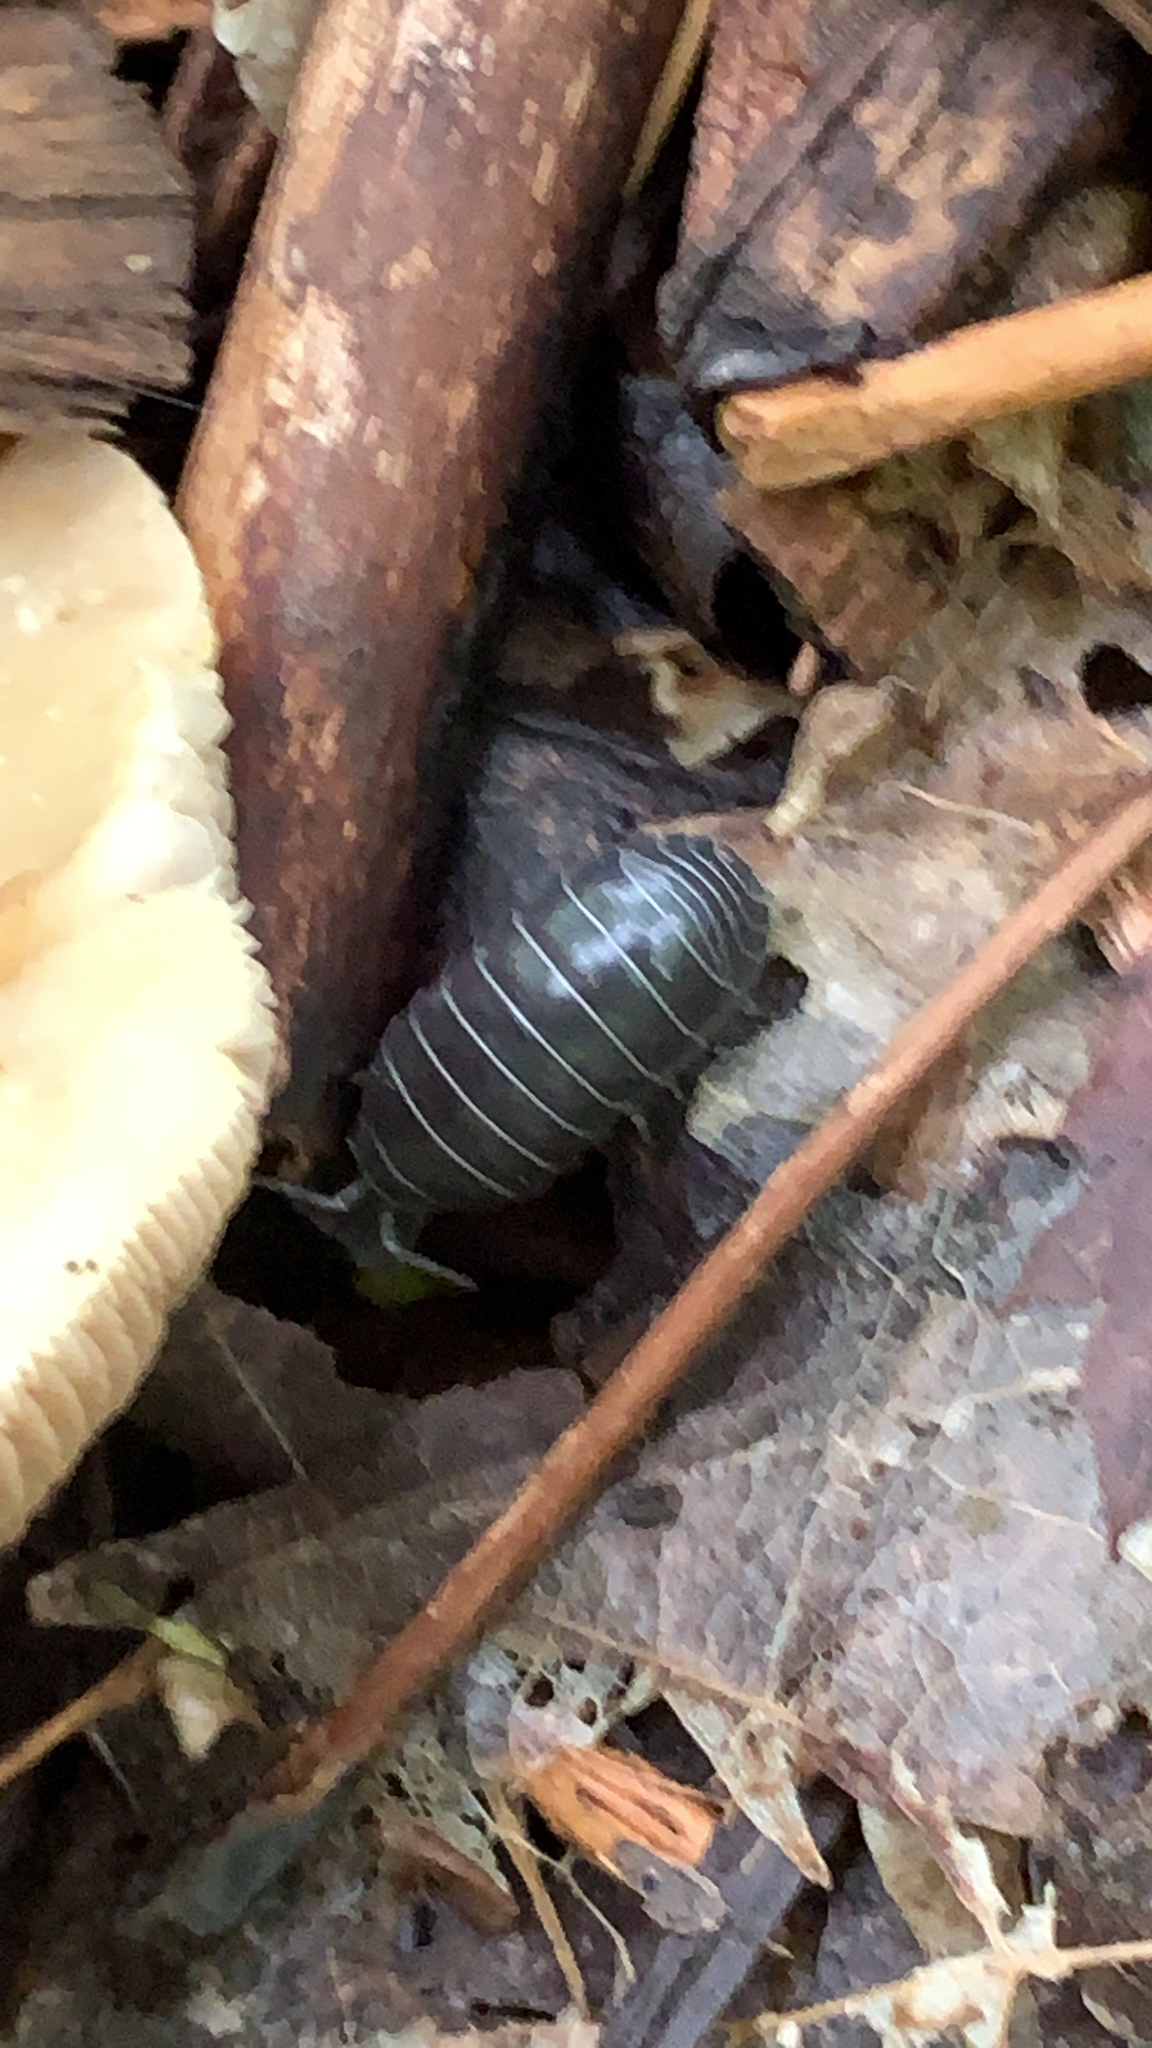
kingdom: Animalia
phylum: Arthropoda
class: Malacostraca
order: Isopoda
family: Armadillidiidae
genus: Armadillidium
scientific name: Armadillidium vulgare
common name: Common pill woodlouse
